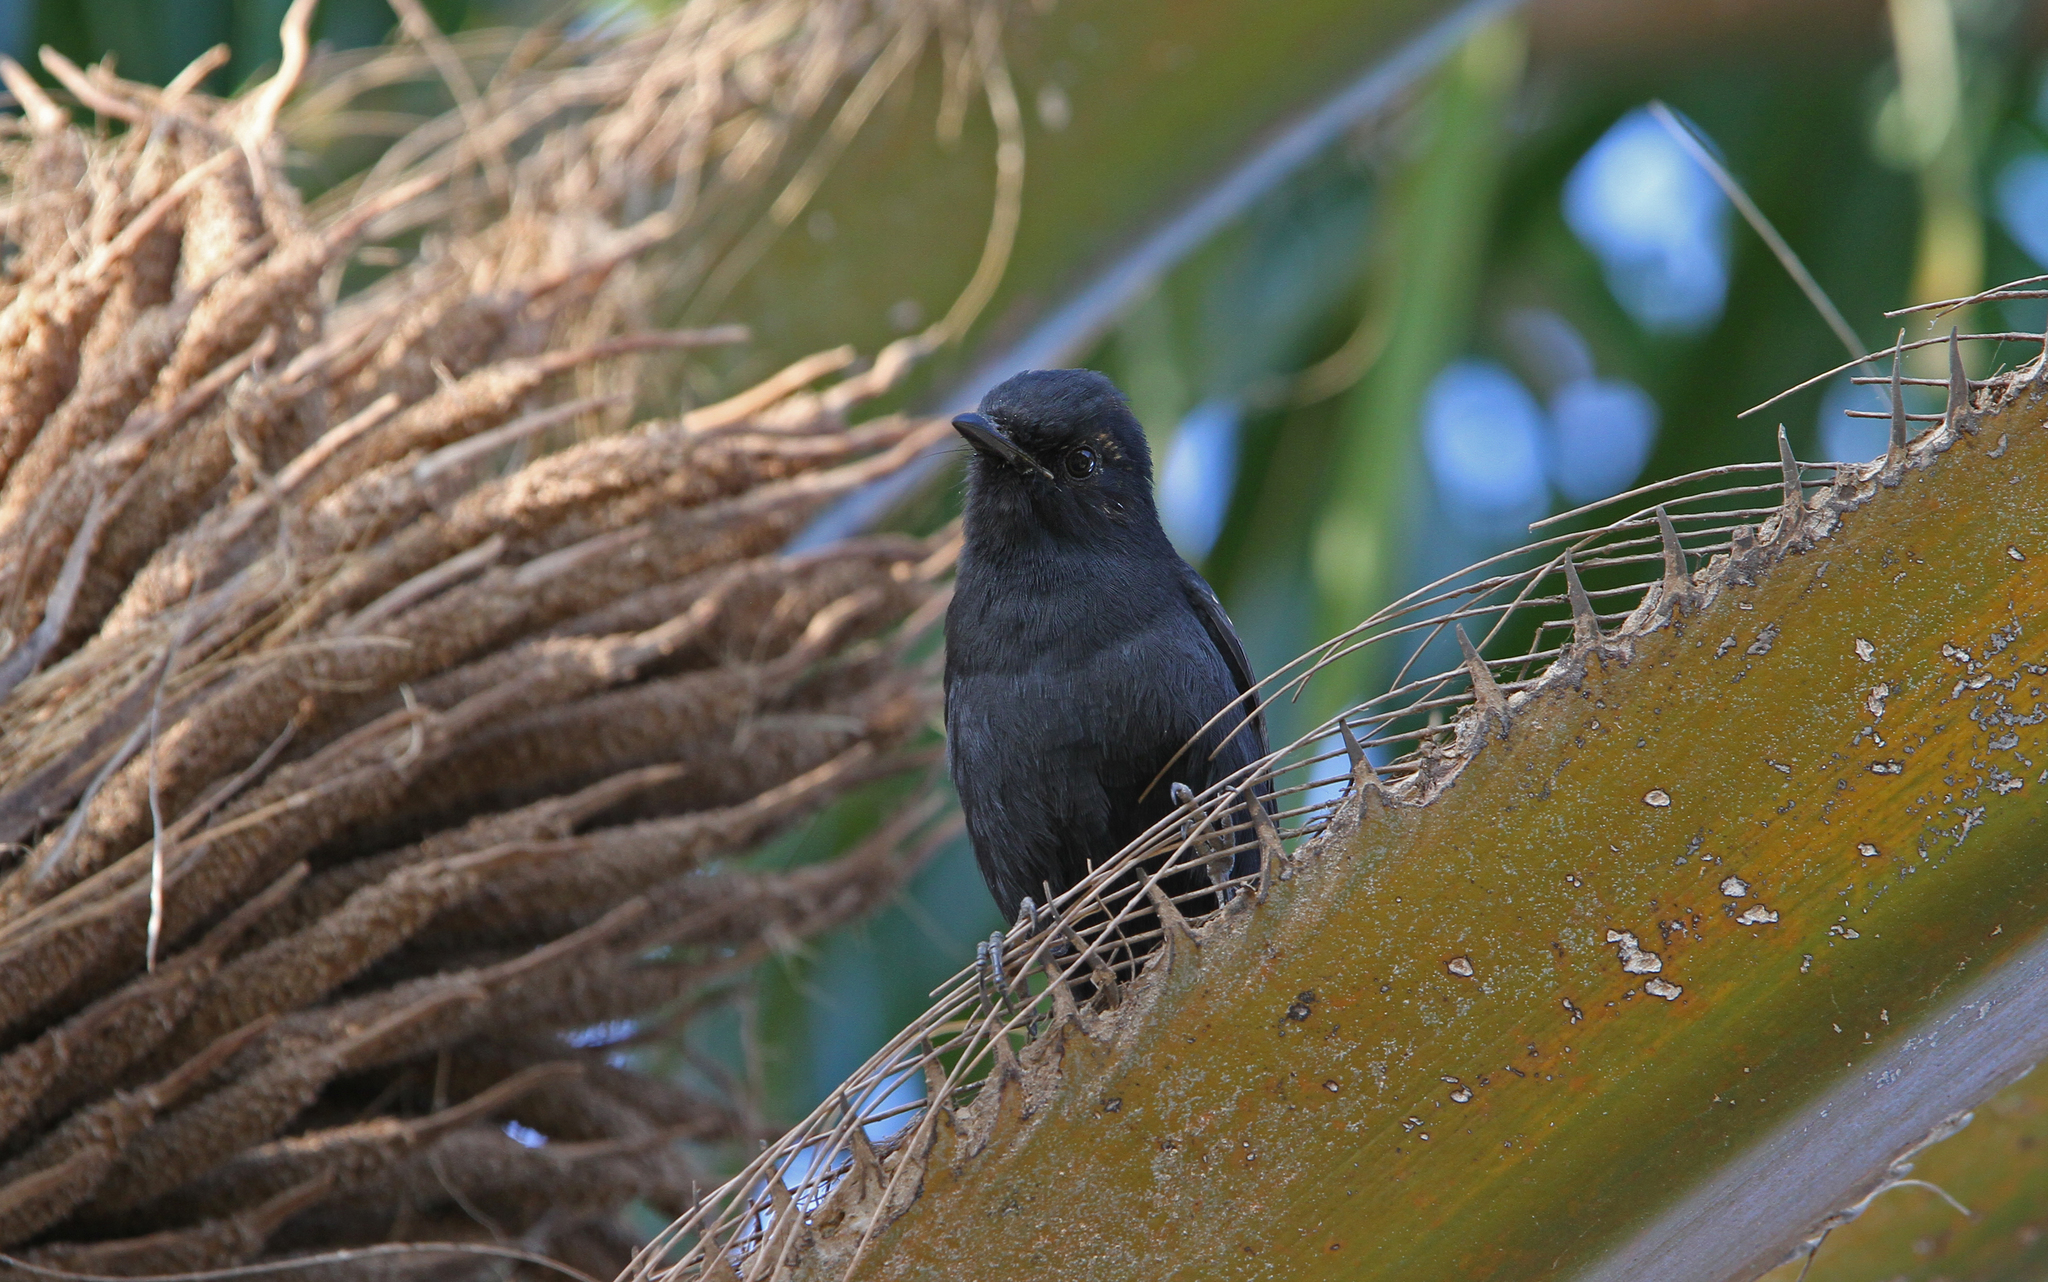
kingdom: Animalia
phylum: Chordata
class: Aves
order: Passeriformes
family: Muscicapidae
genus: Melaenornis
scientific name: Melaenornis edolioides
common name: Northern black flycatcher
